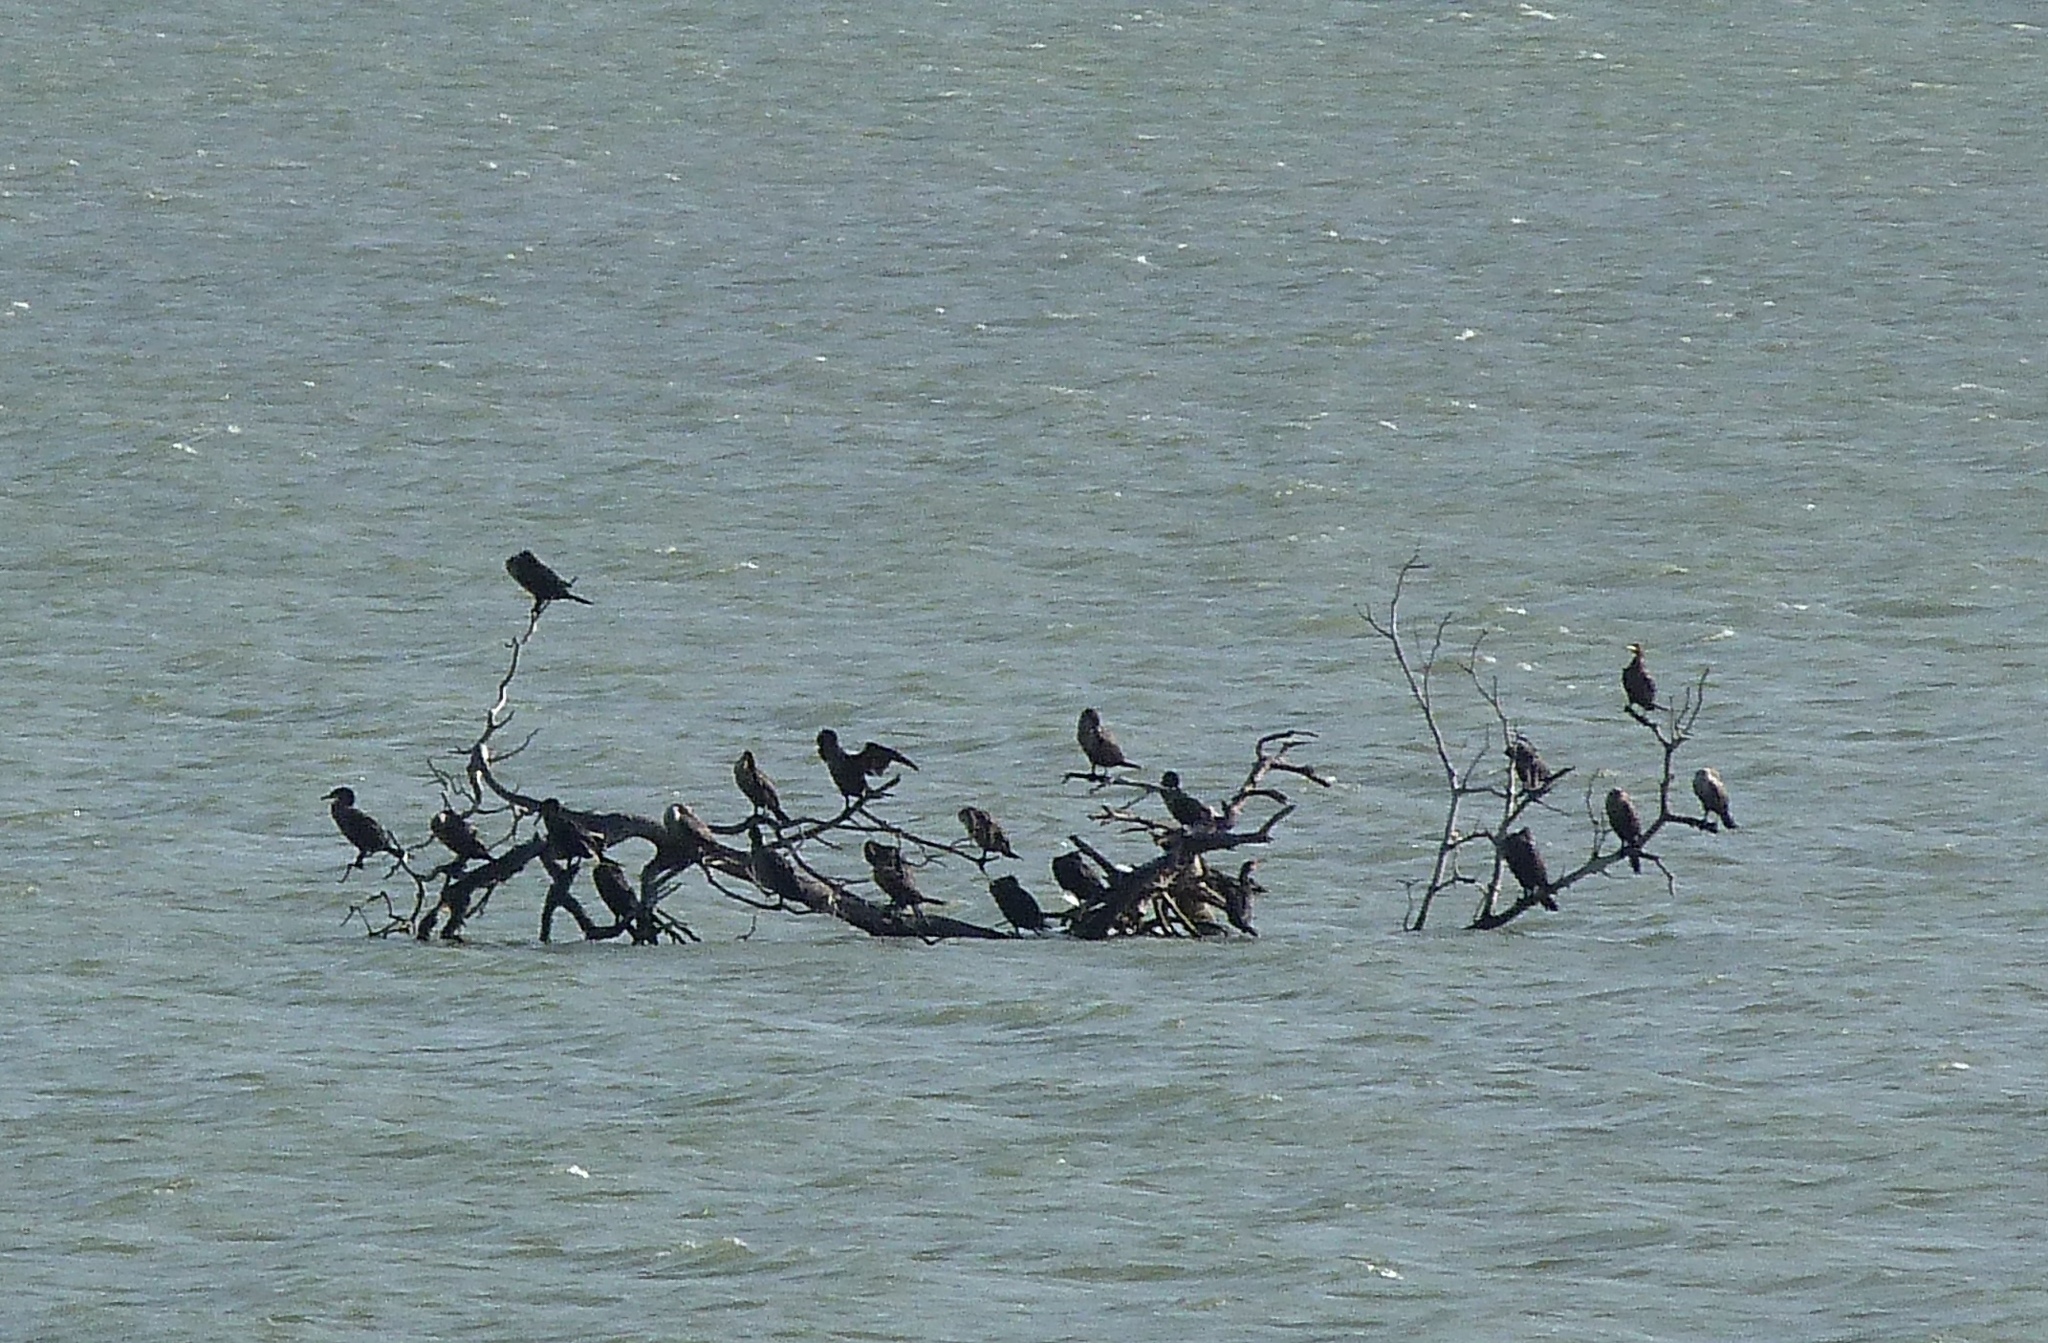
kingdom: Animalia
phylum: Chordata
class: Aves
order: Suliformes
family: Phalacrocoracidae
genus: Phalacrocorax
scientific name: Phalacrocorax auritus
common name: Double-crested cormorant
